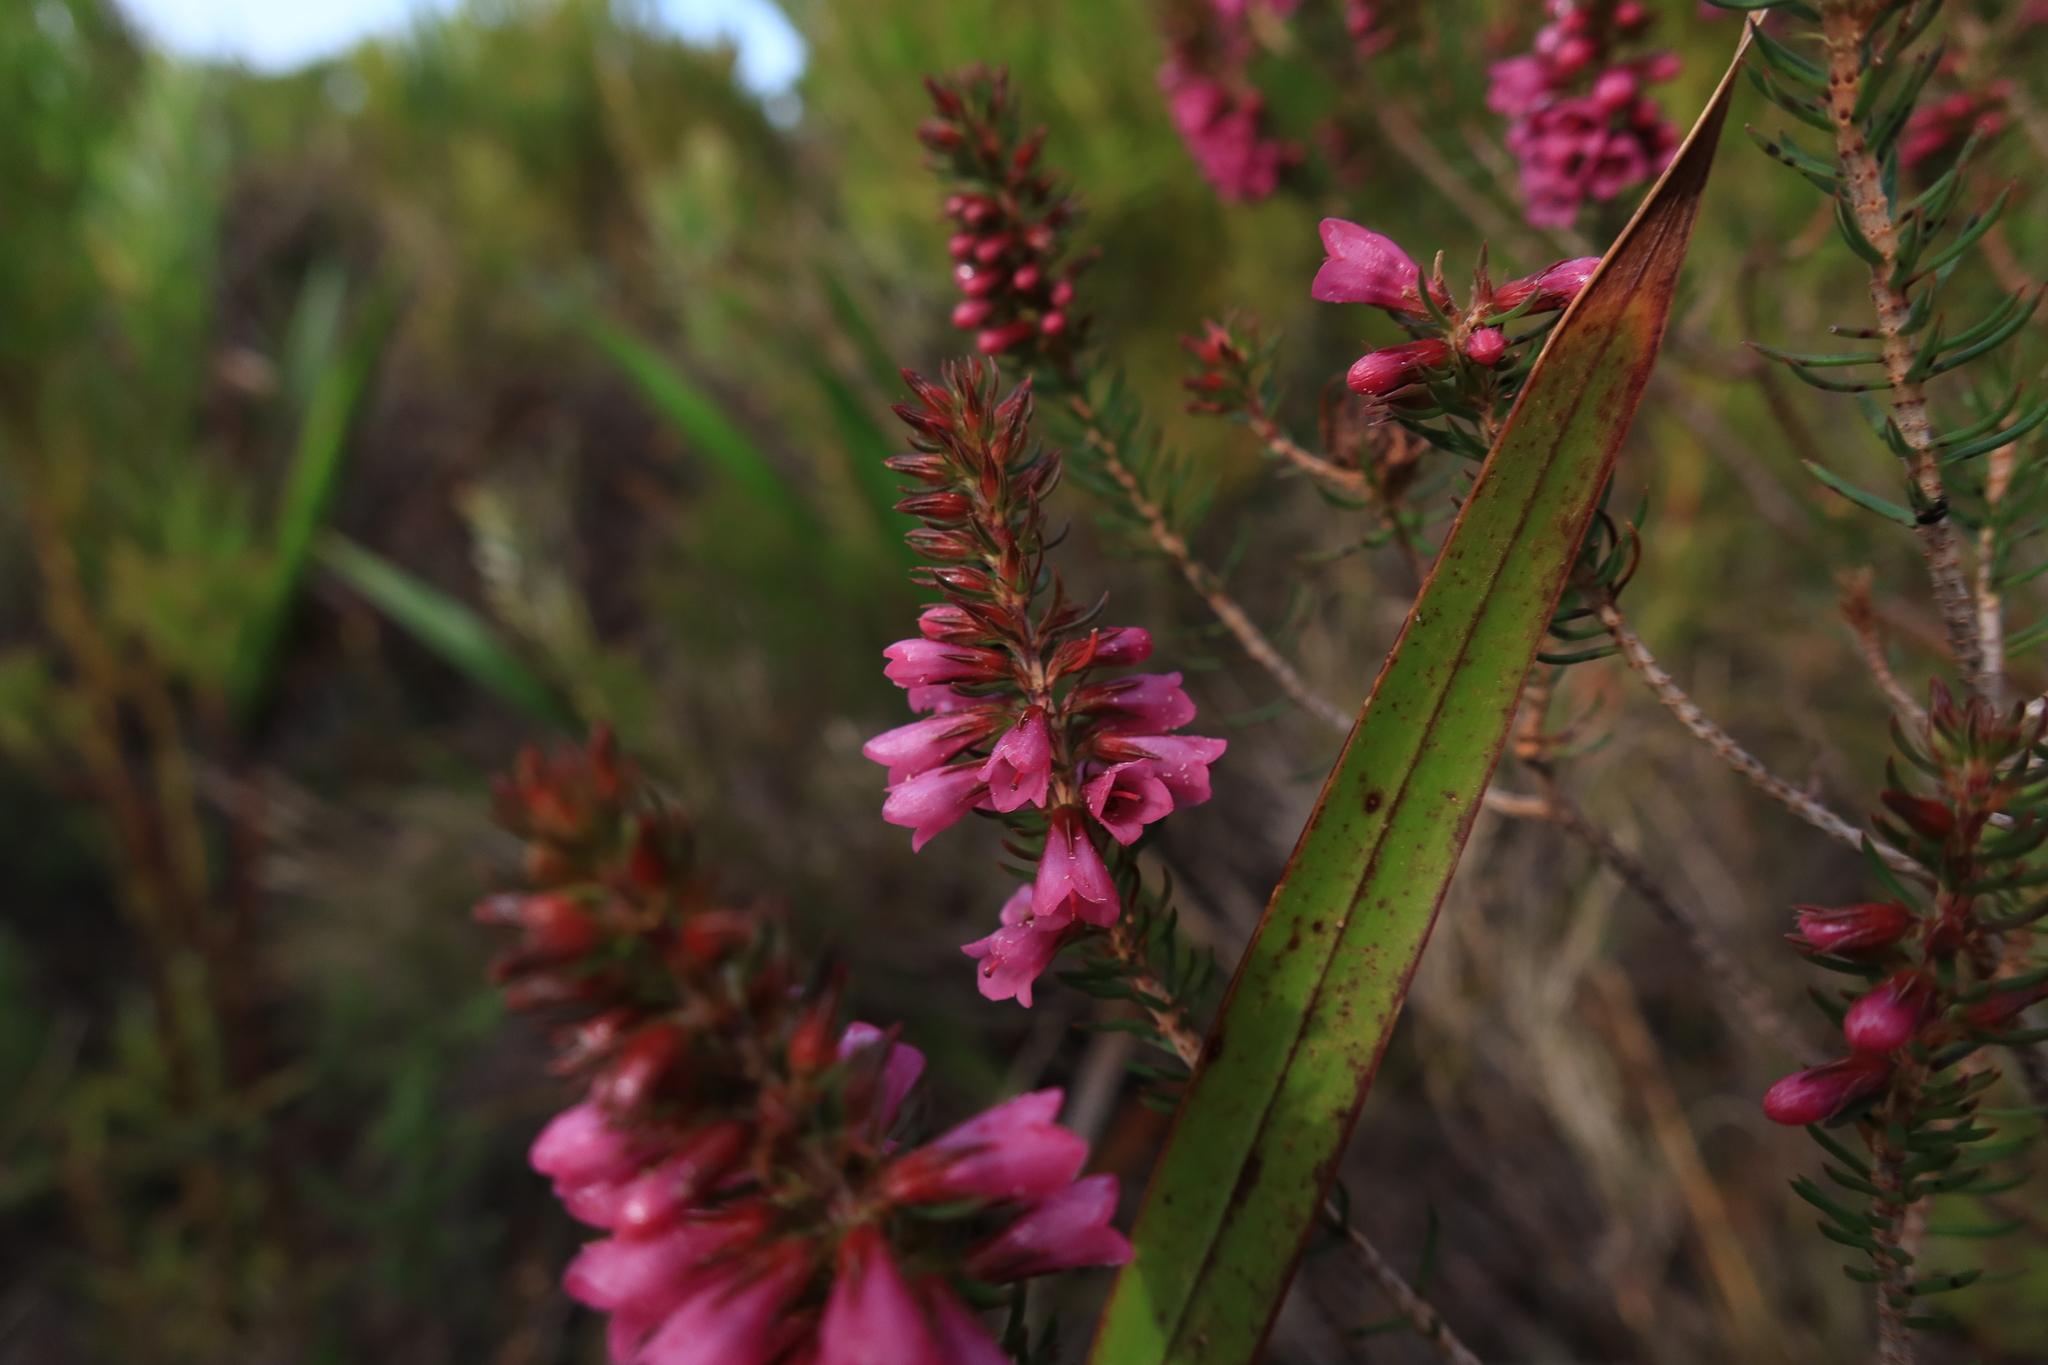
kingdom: Plantae
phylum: Tracheophyta
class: Magnoliopsida
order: Ericales
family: Ericaceae
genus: Erica
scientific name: Erica abietina
